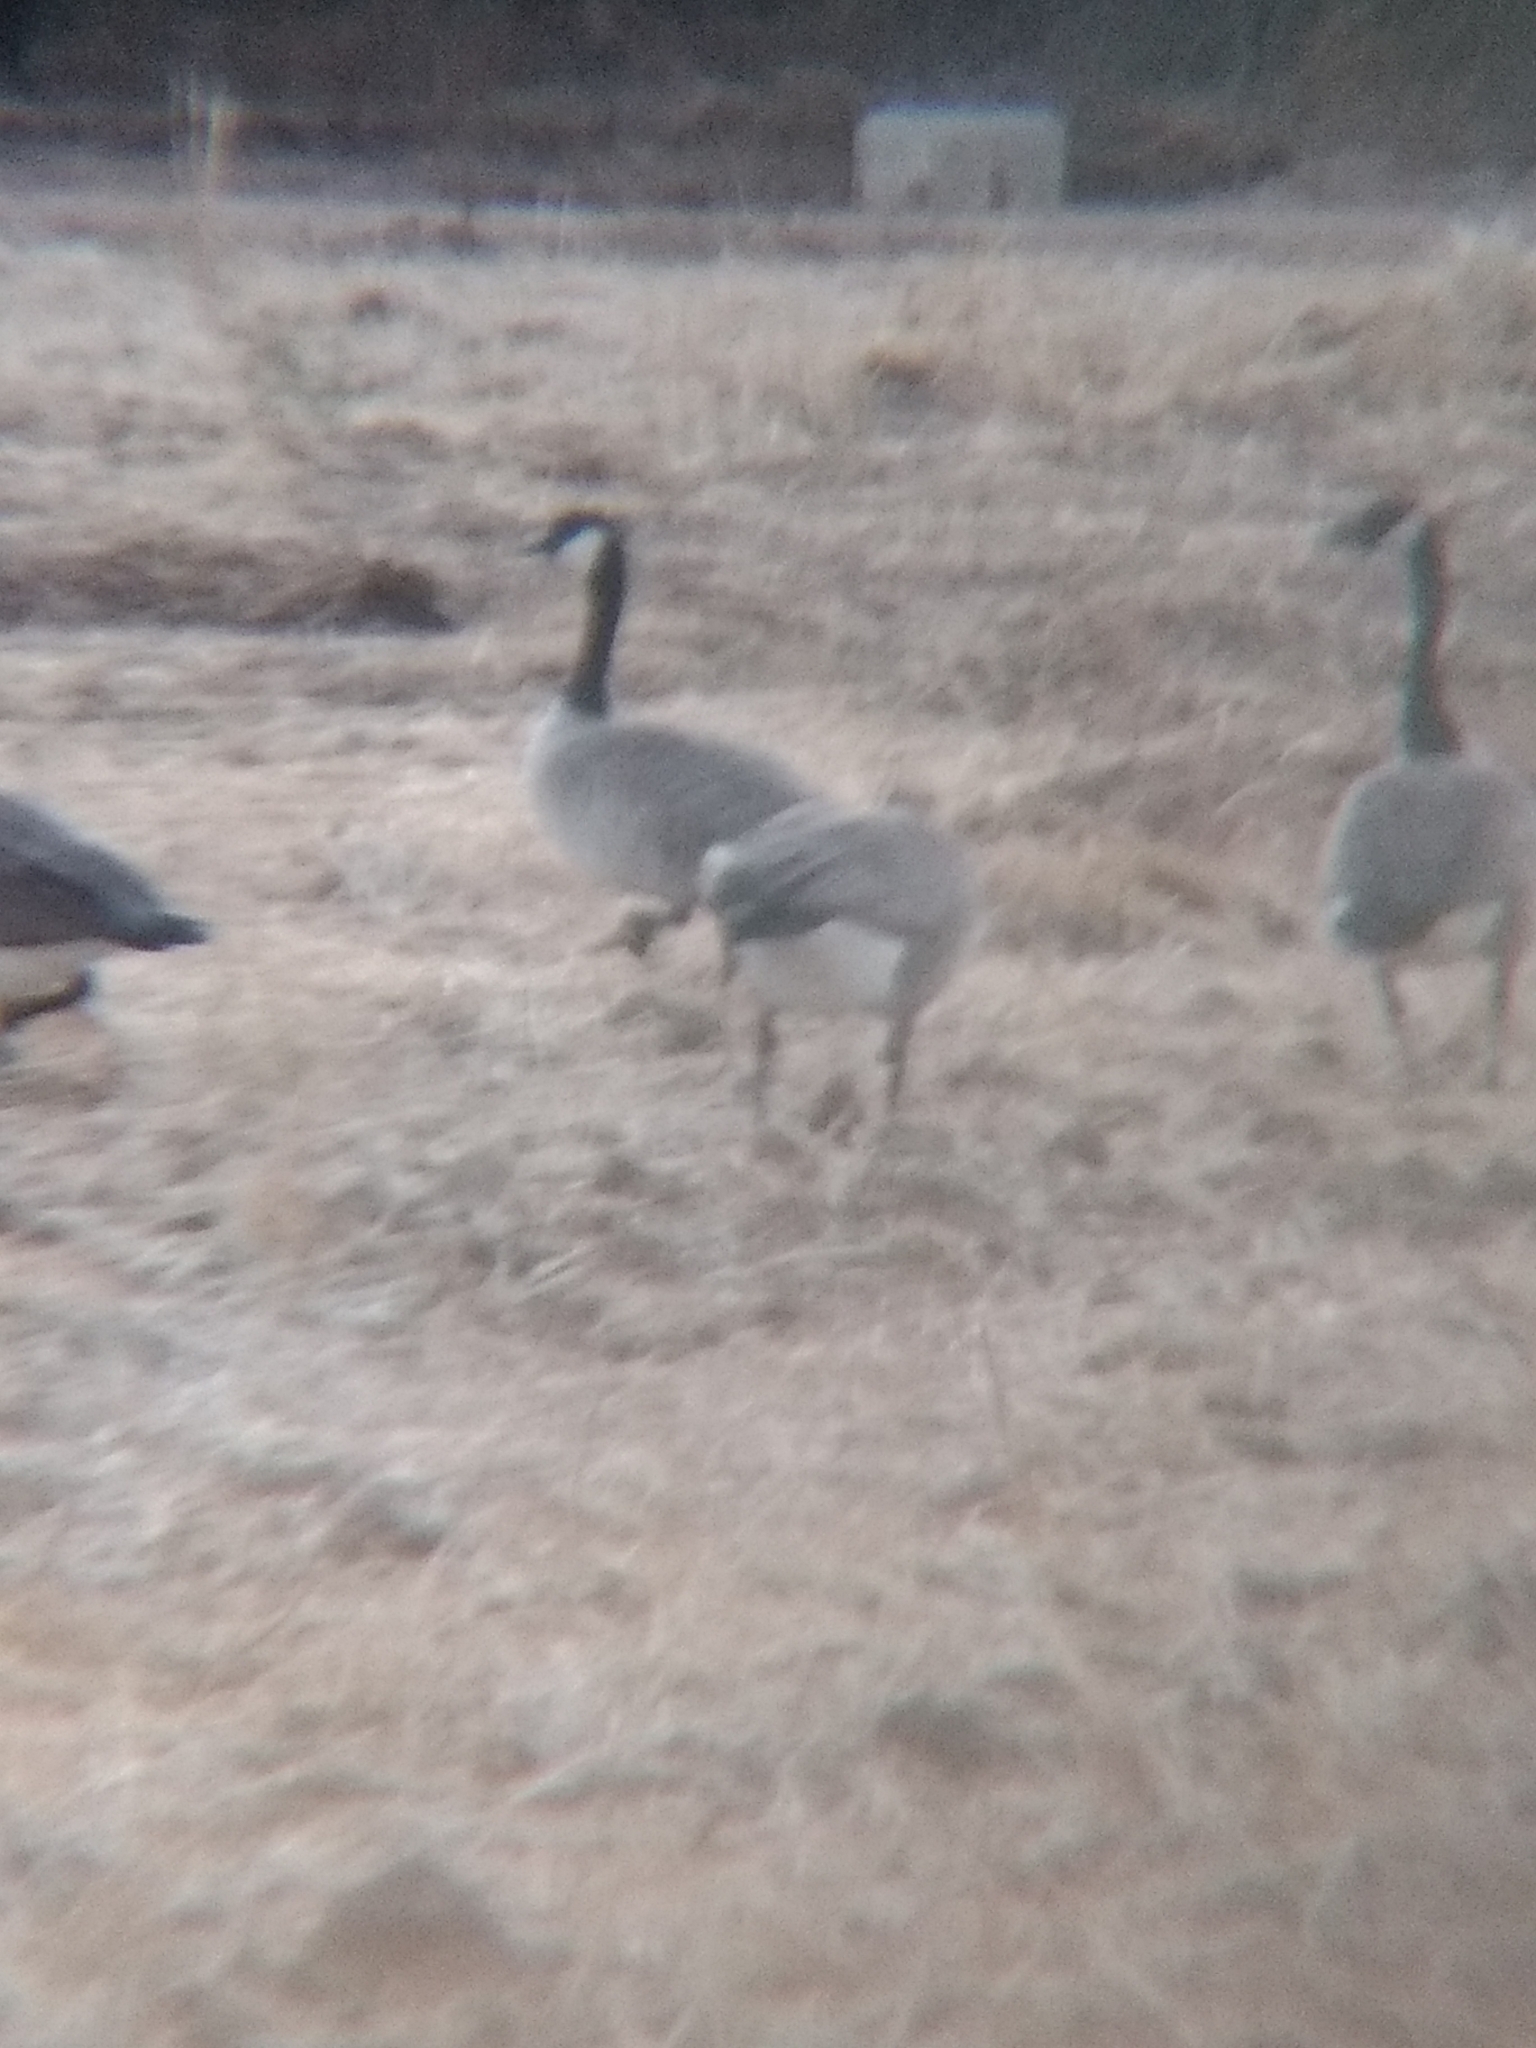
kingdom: Animalia
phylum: Chordata
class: Aves
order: Anseriformes
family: Anatidae
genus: Branta
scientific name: Branta canadensis
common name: Canada goose
